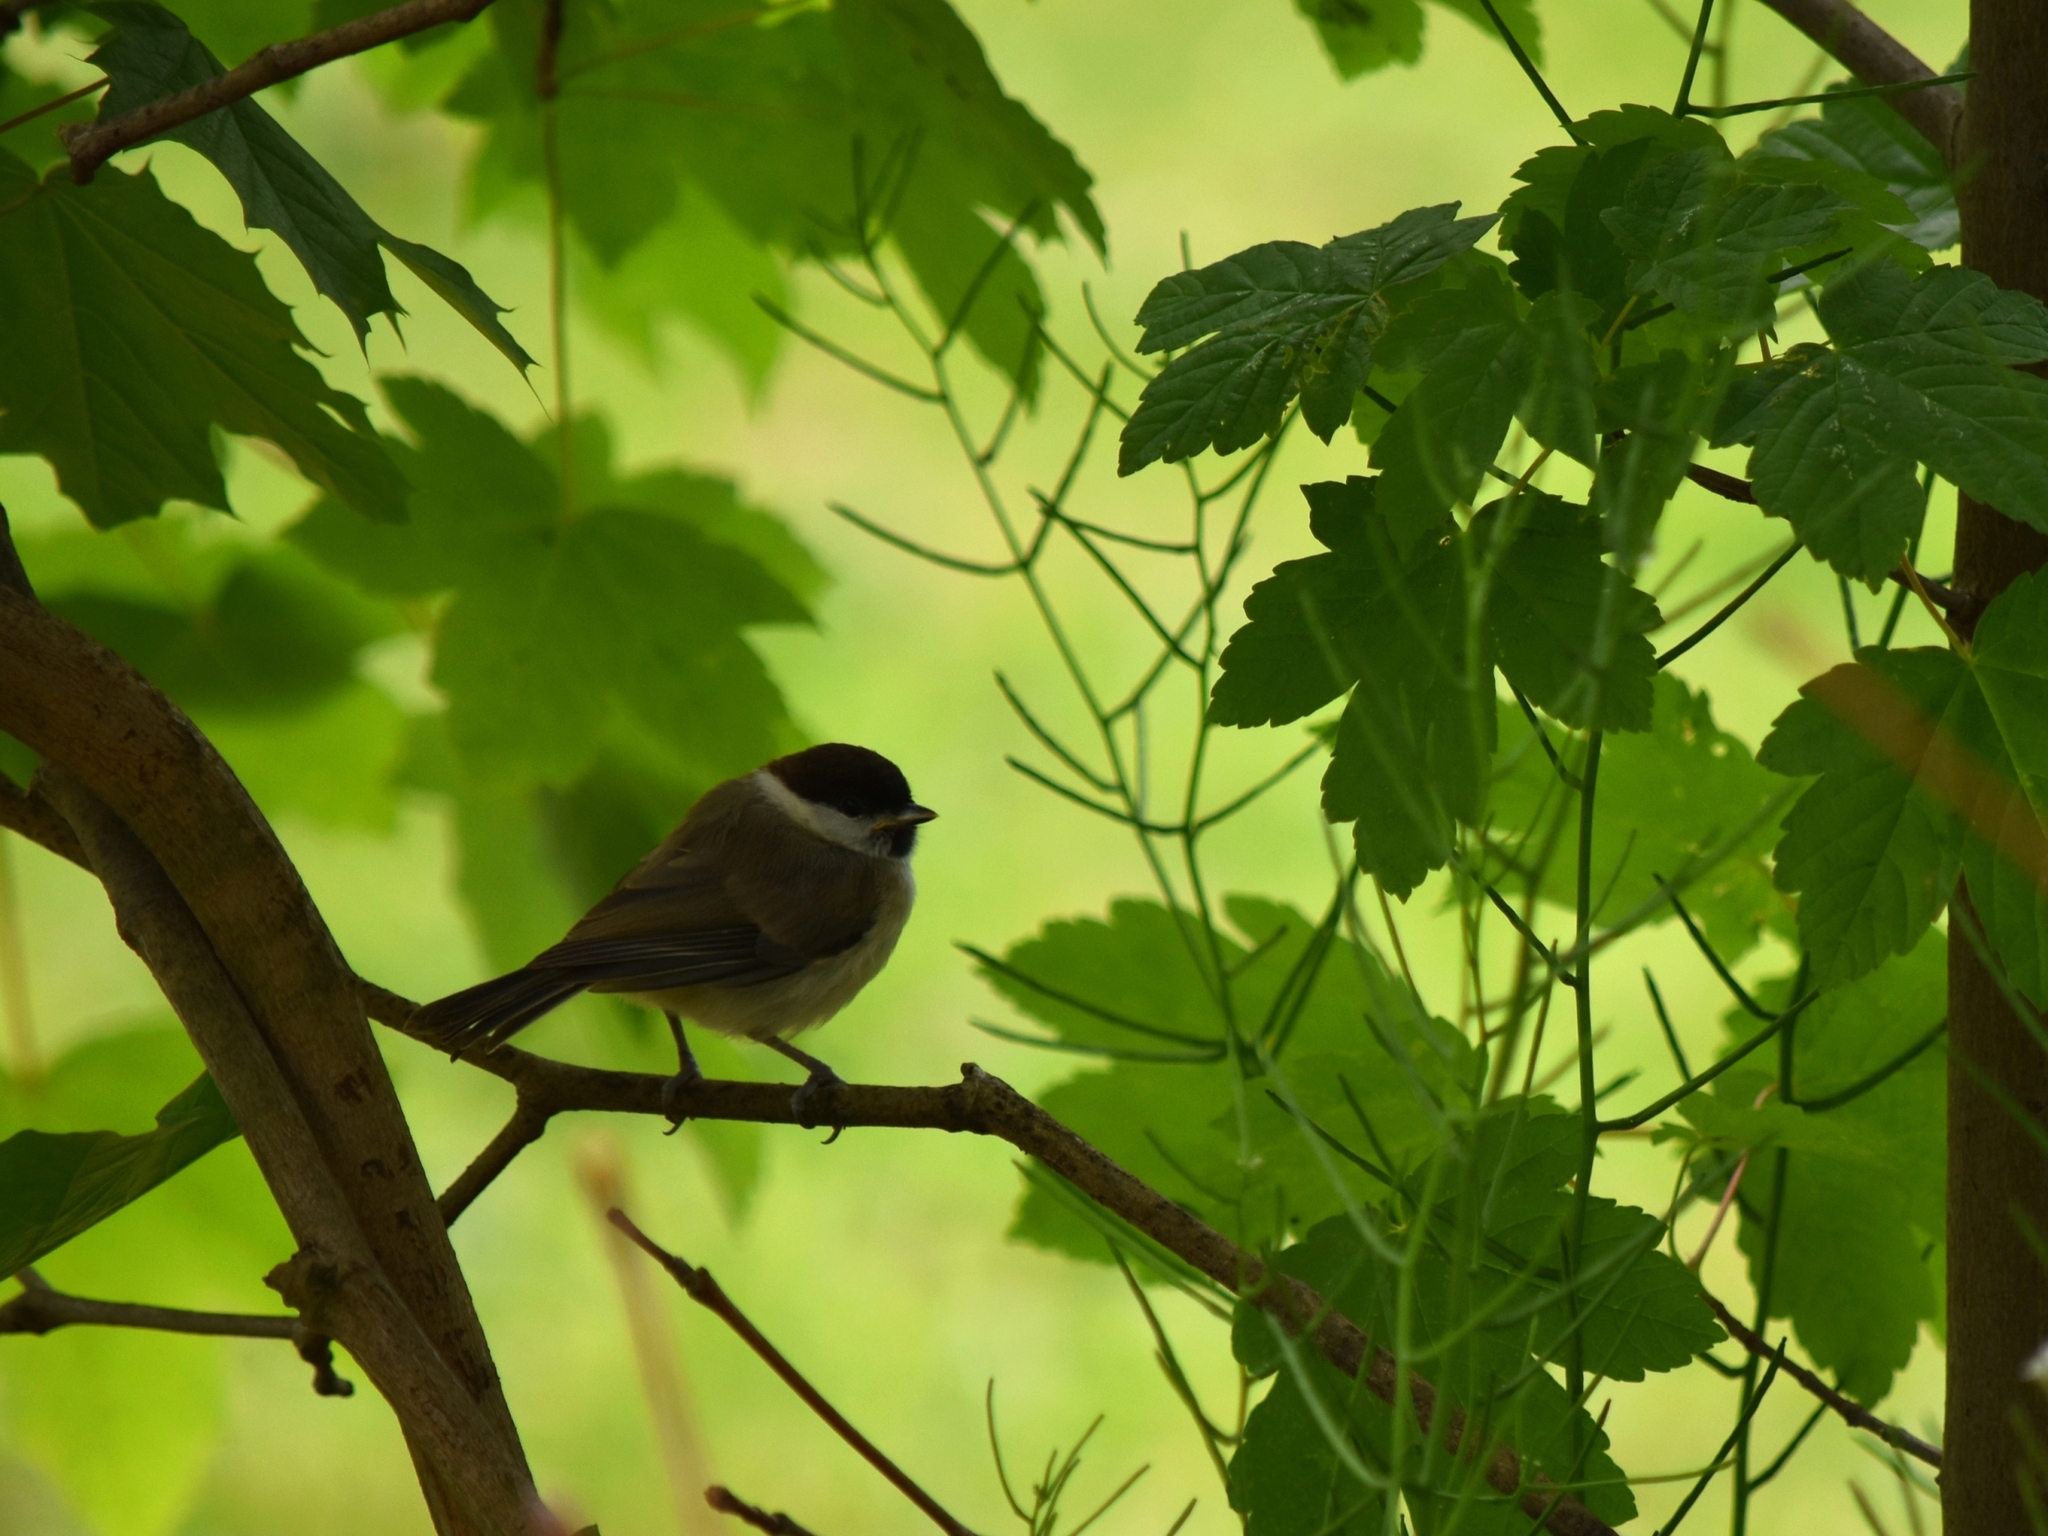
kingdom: Animalia
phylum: Chordata
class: Aves
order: Passeriformes
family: Paridae
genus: Poecile
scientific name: Poecile palustris
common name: Marsh tit
